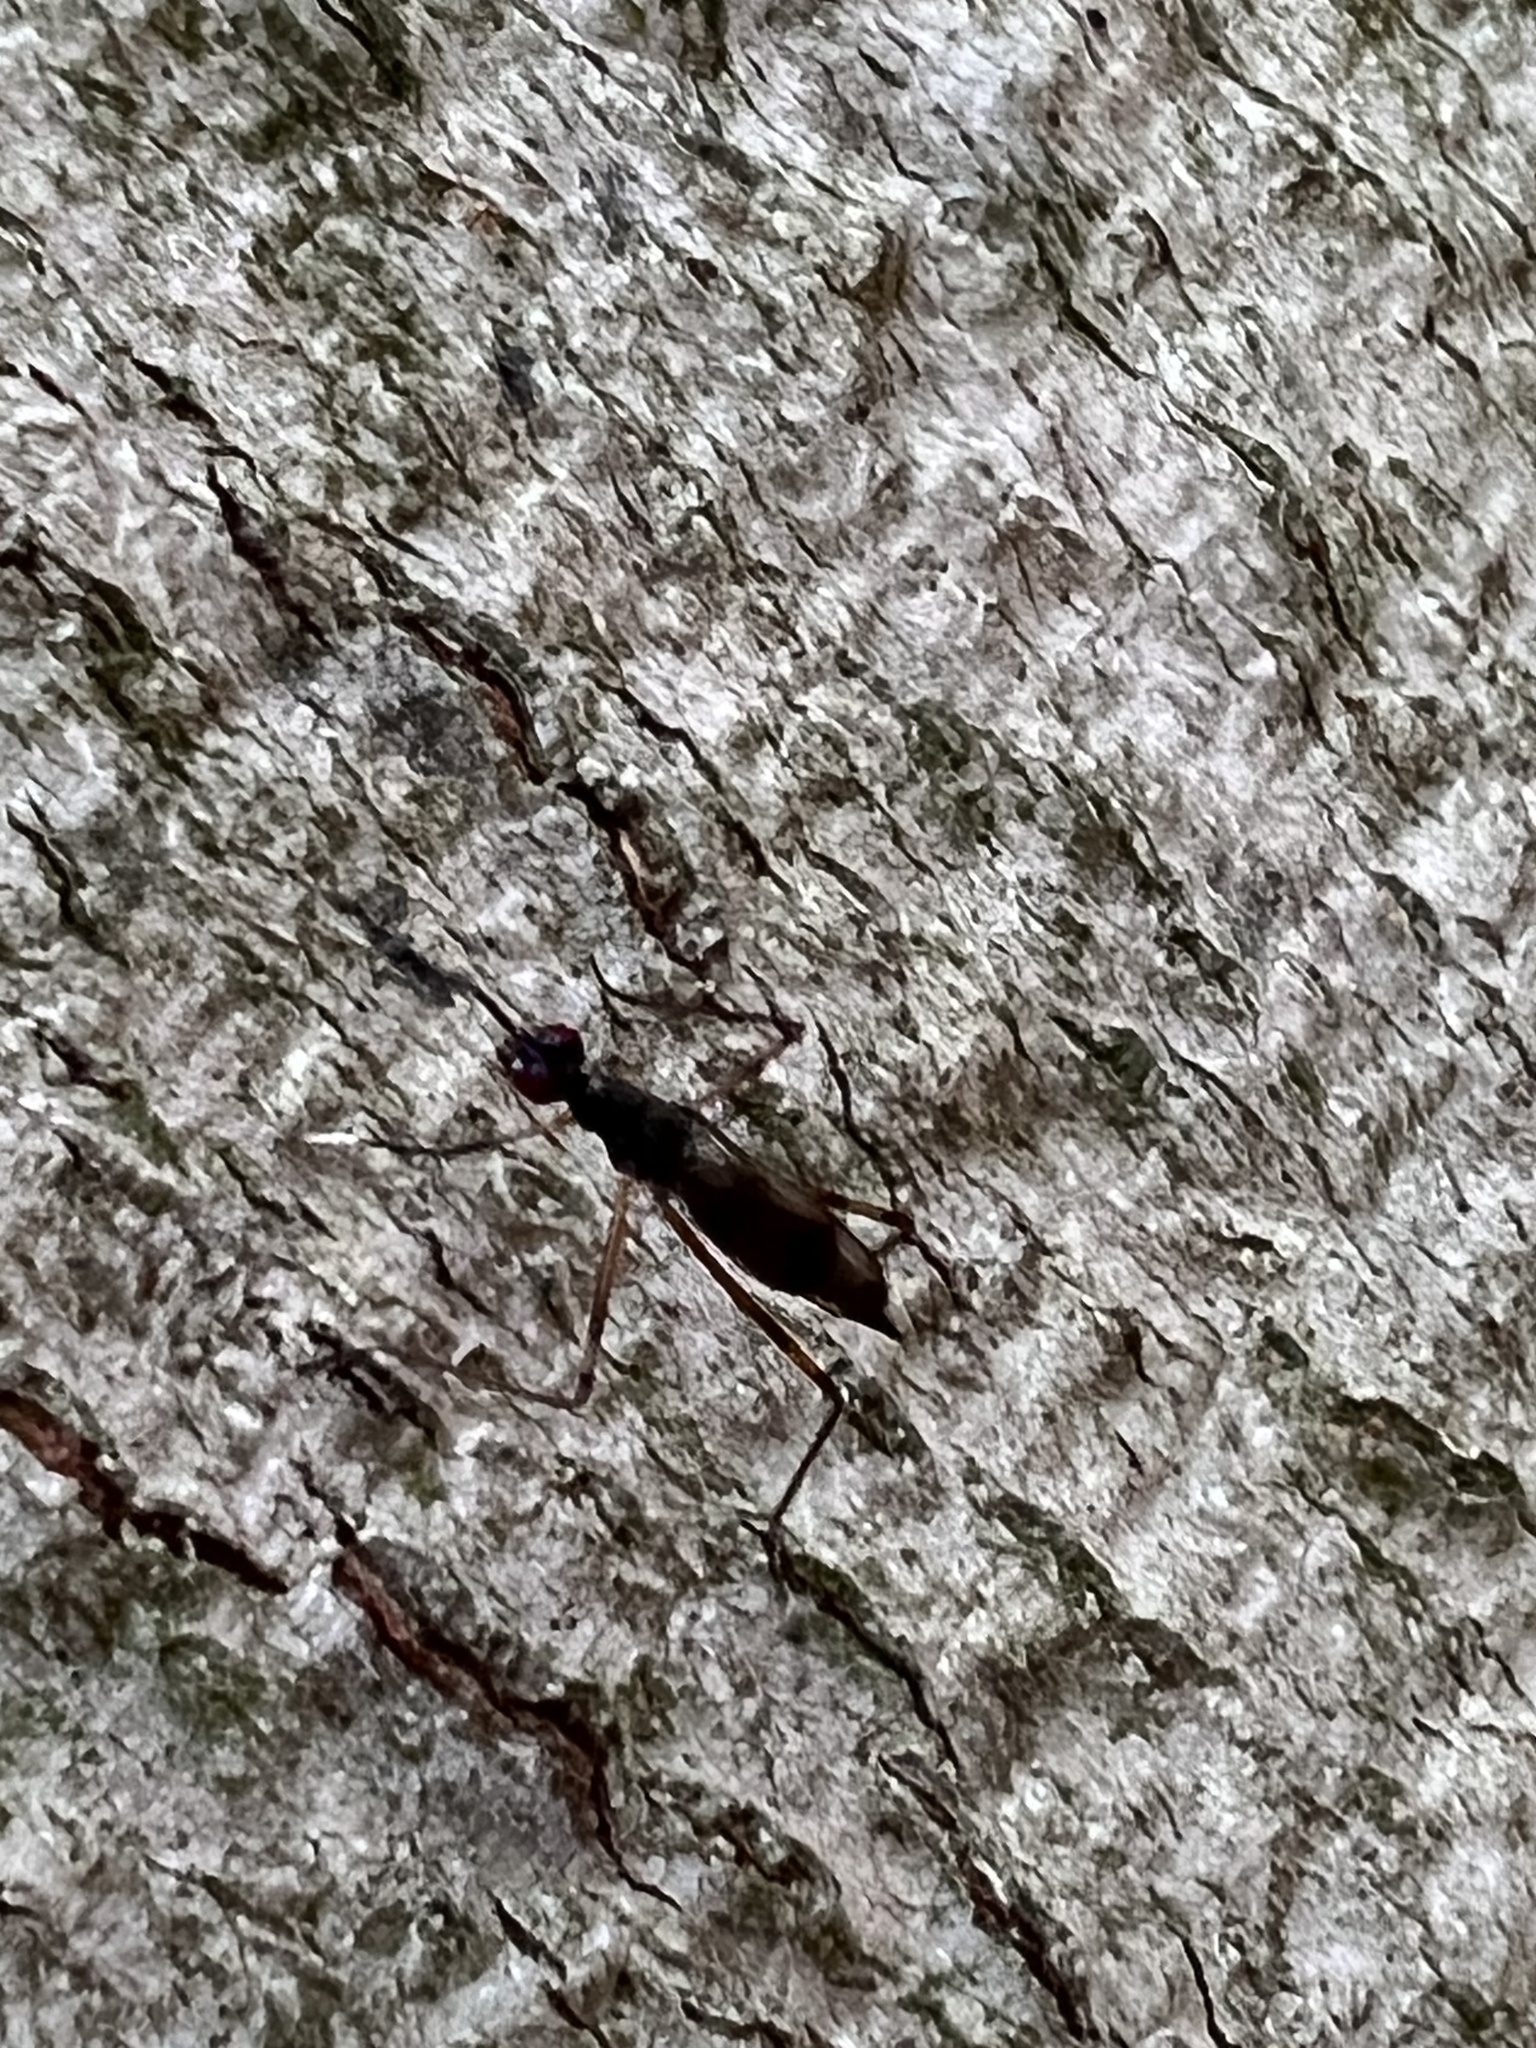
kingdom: Animalia
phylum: Arthropoda
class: Insecta
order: Diptera
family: Micropezidae
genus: Rainieria
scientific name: Rainieria antennaepes
